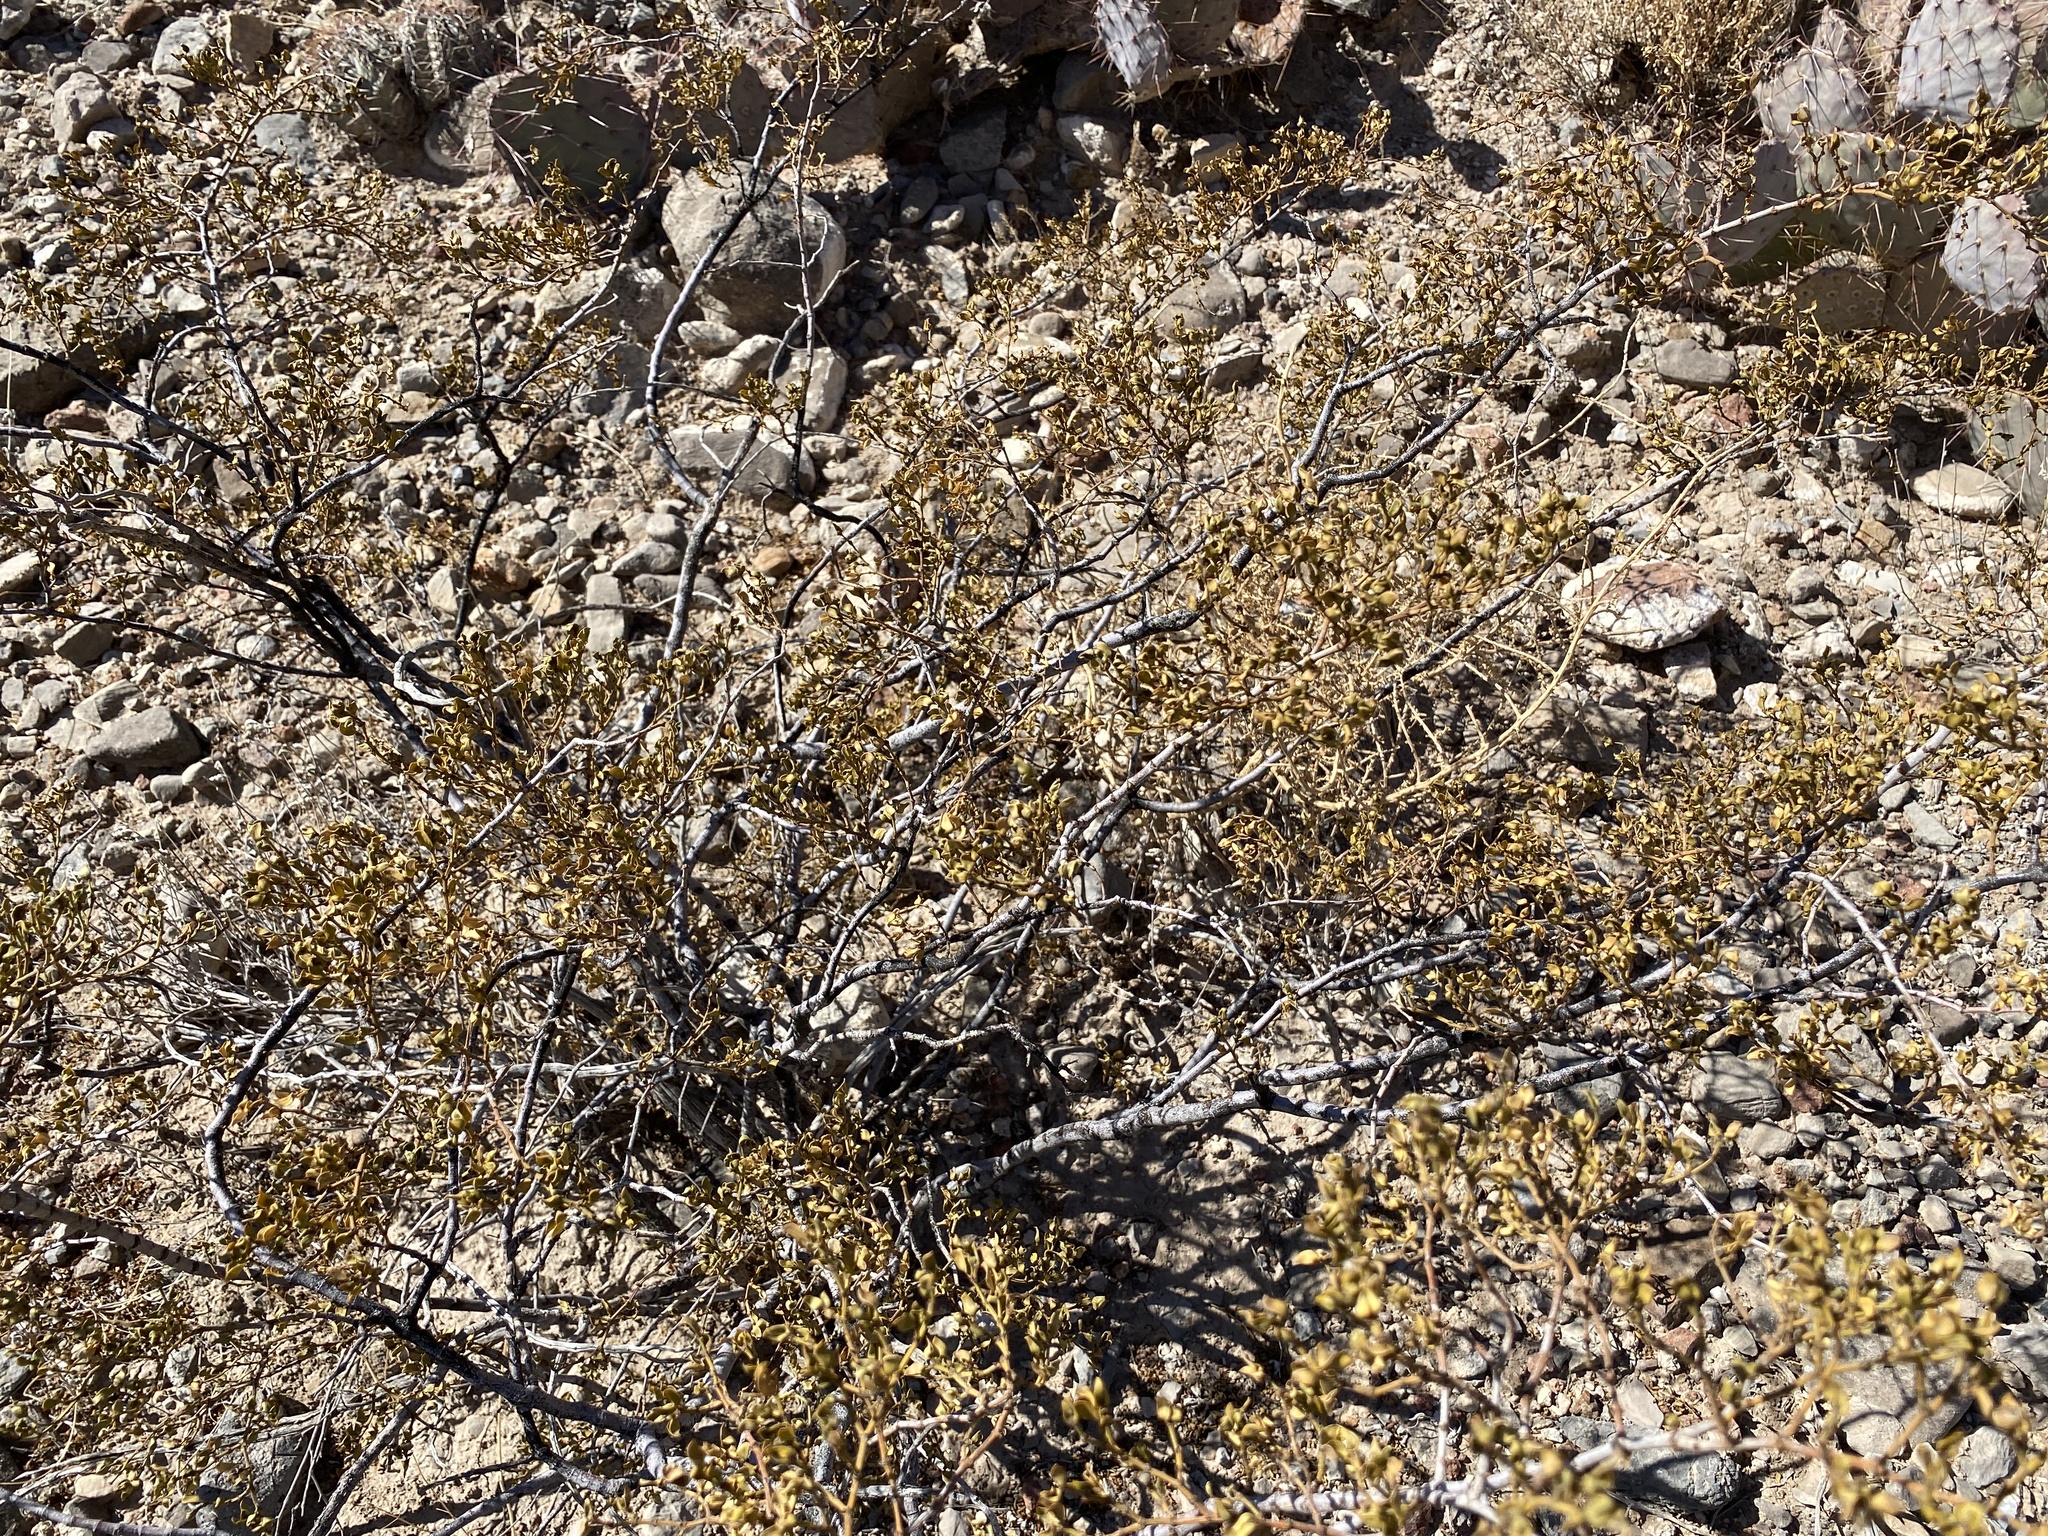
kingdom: Plantae
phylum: Tracheophyta
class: Magnoliopsida
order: Zygophyllales
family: Zygophyllaceae
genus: Larrea
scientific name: Larrea tridentata
